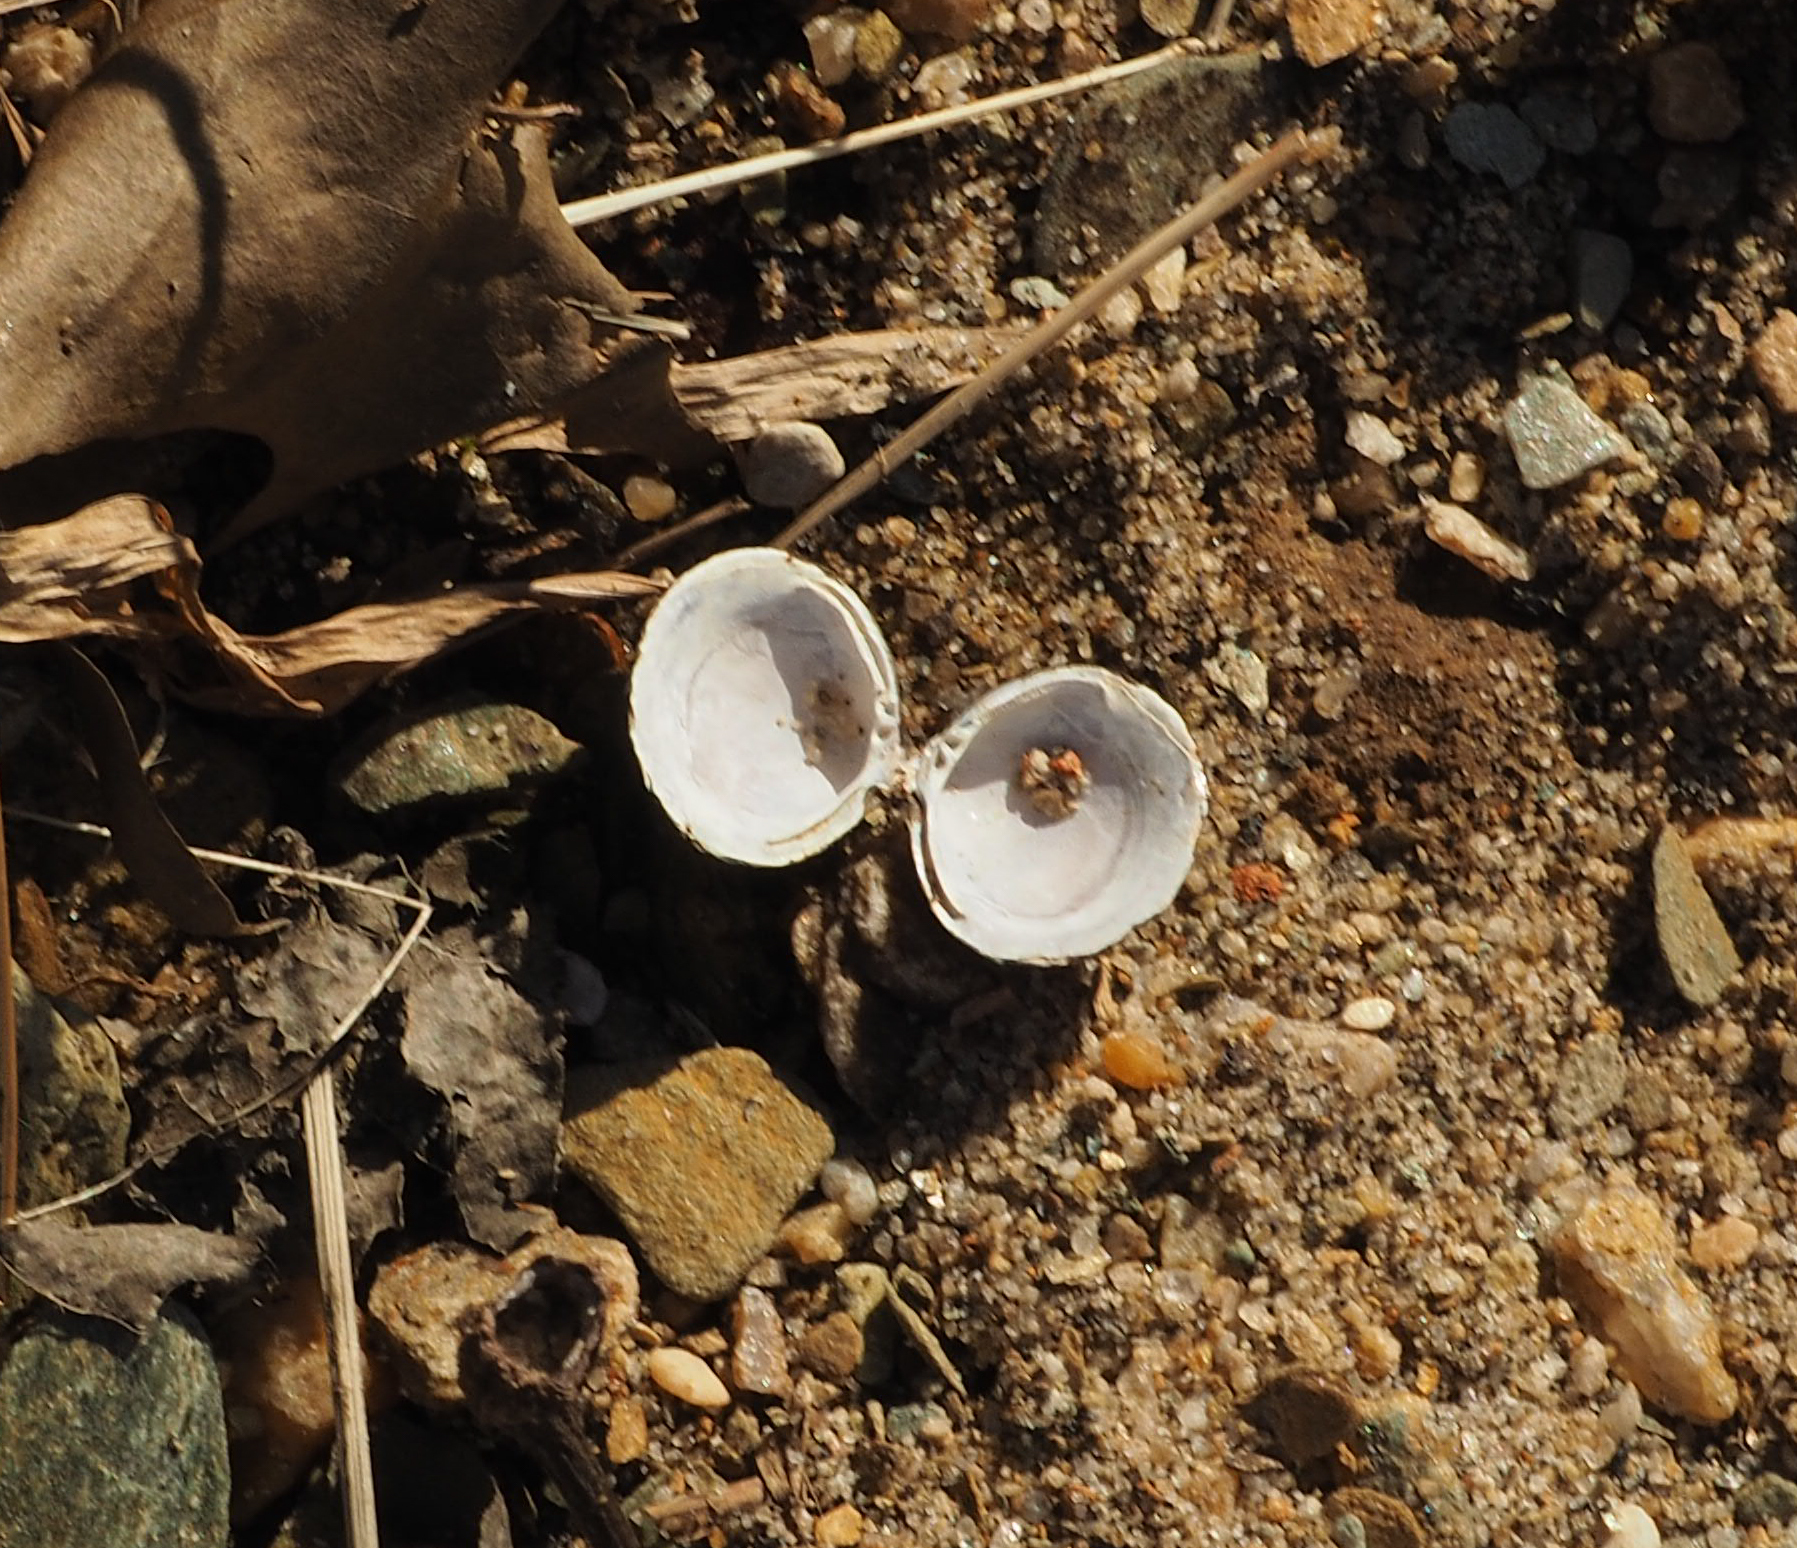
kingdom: Animalia
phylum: Mollusca
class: Bivalvia
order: Venerida
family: Cyrenidae
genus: Corbicula
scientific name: Corbicula fluminea
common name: Asian clam
